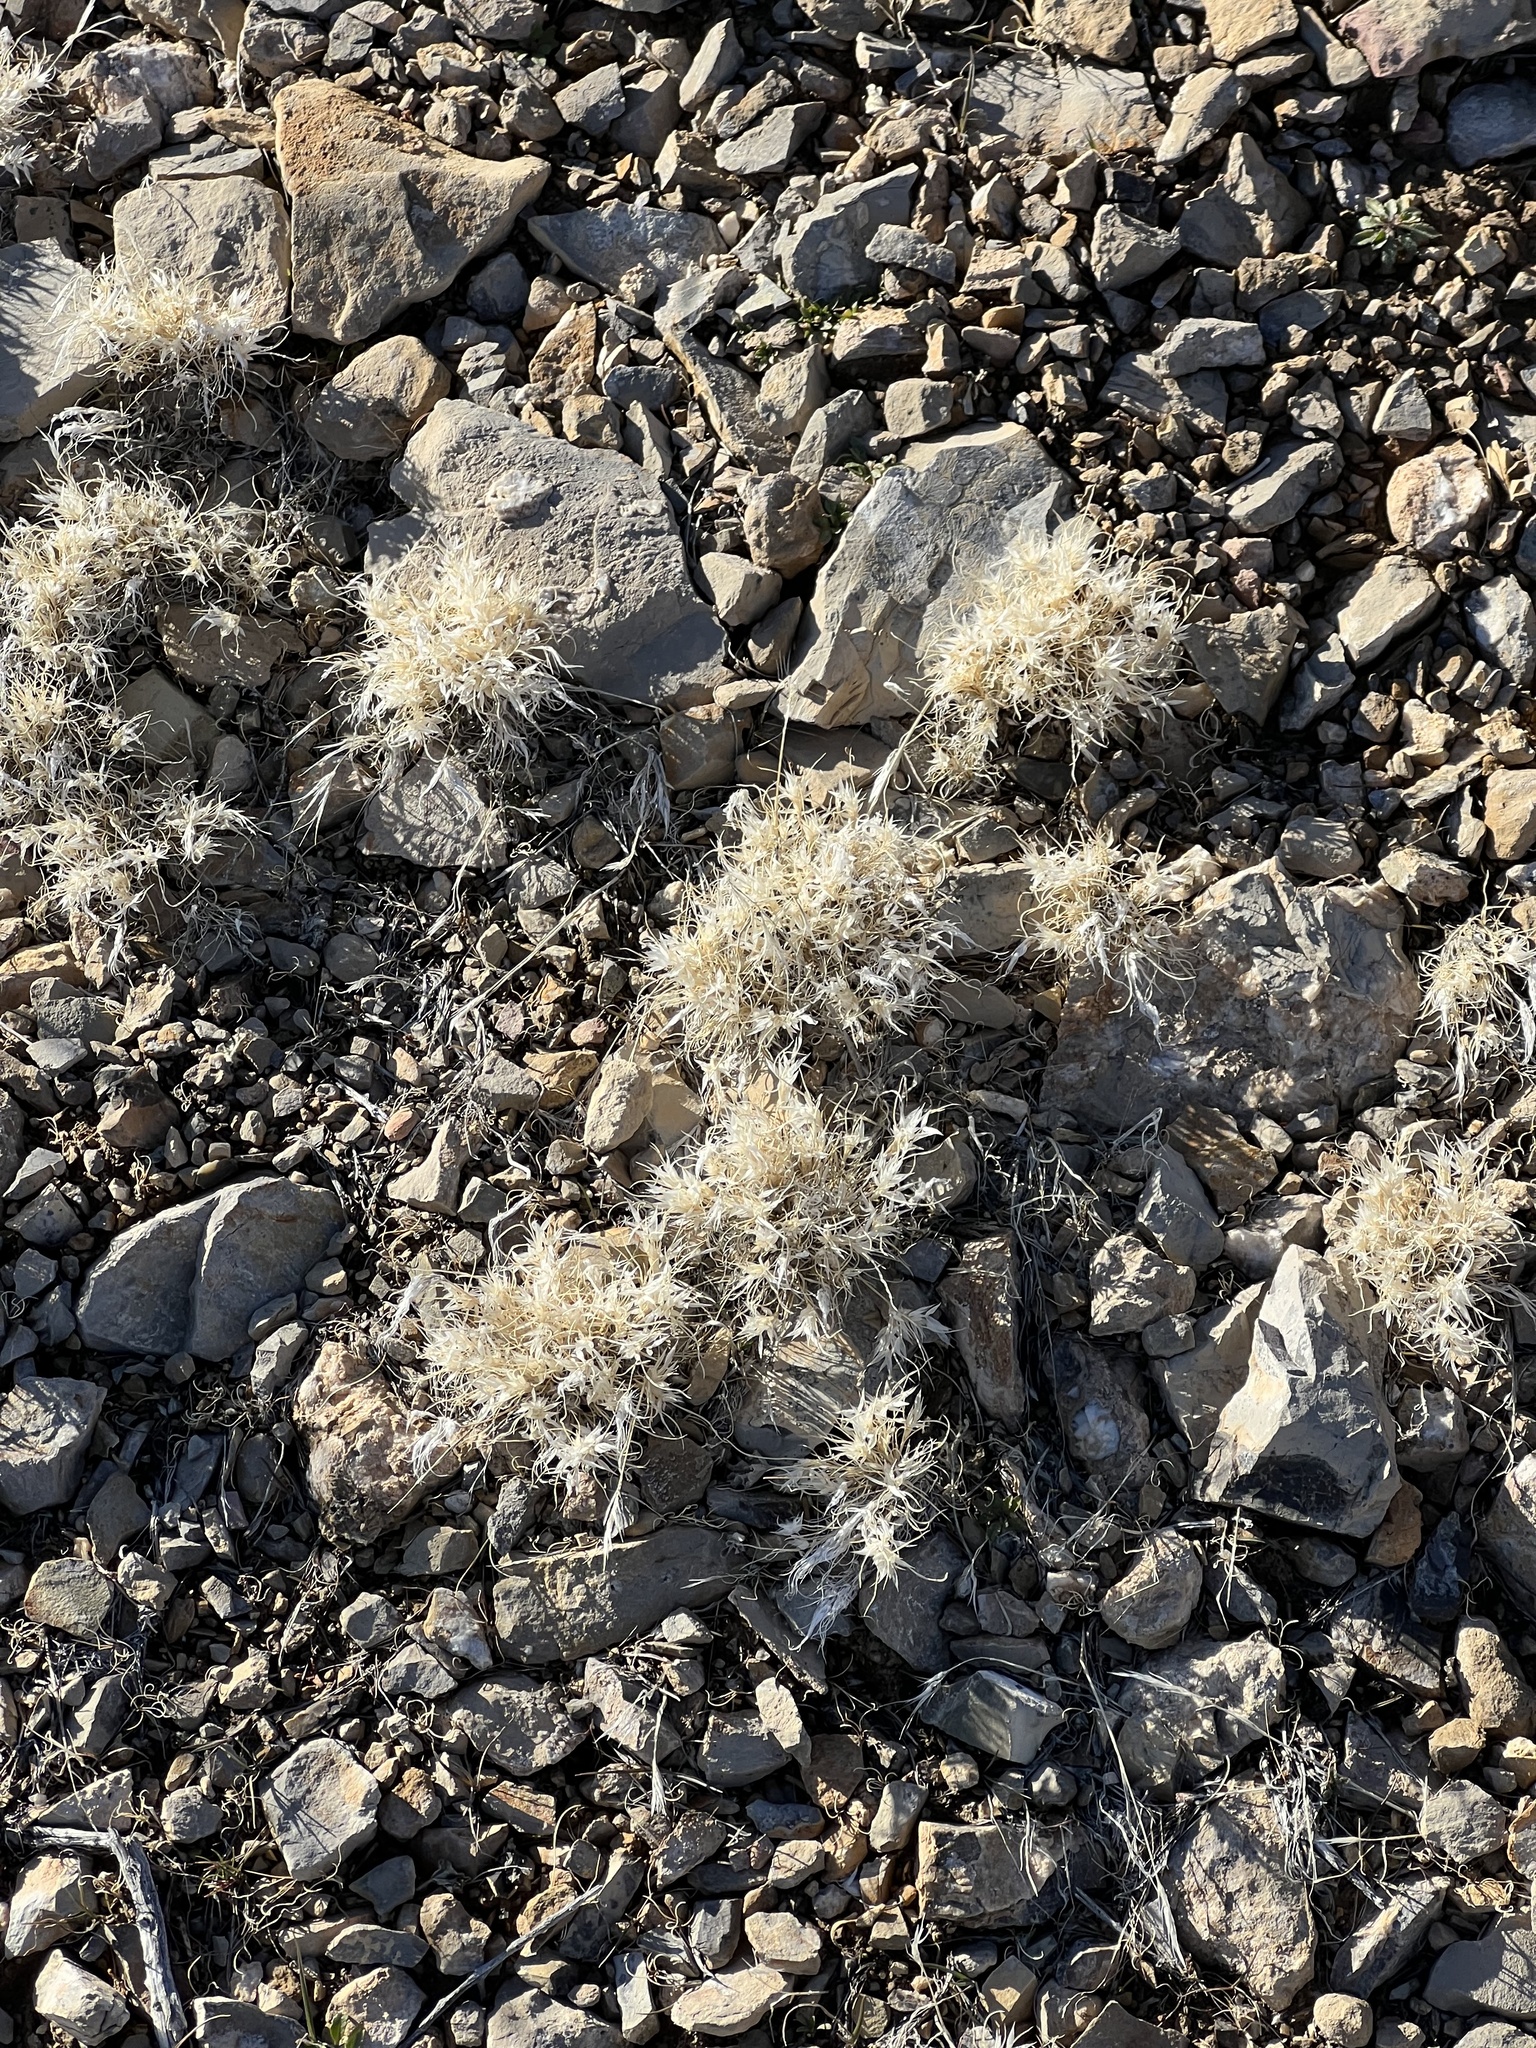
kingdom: Plantae
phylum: Tracheophyta
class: Liliopsida
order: Poales
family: Poaceae
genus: Dasyochloa
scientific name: Dasyochloa pulchella
